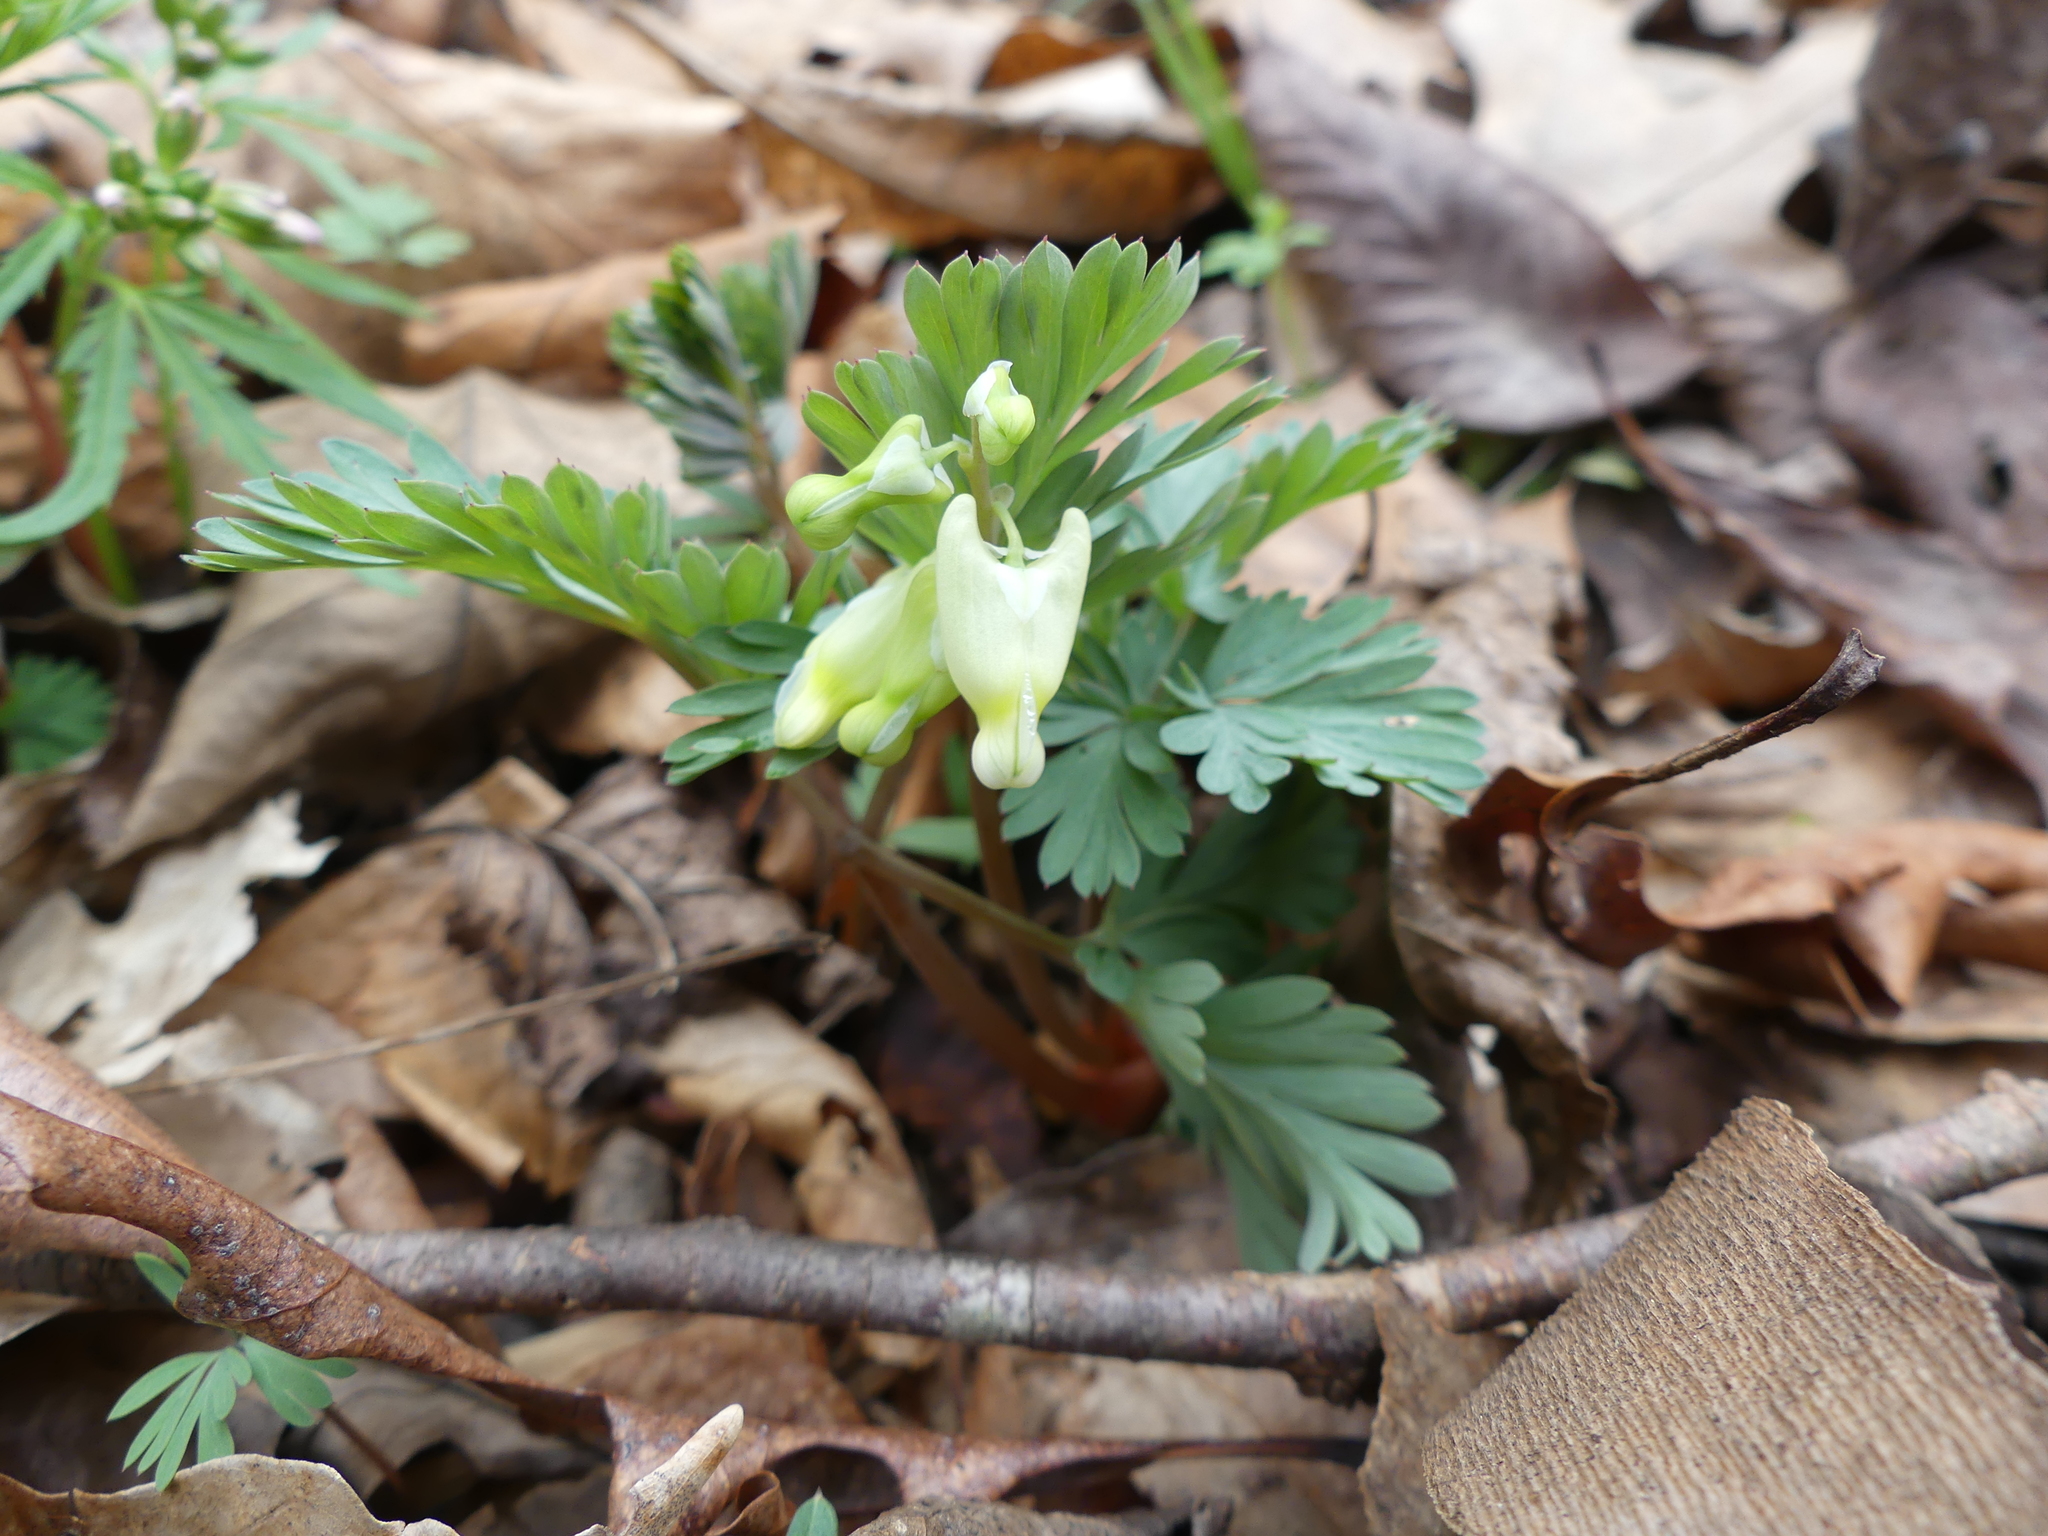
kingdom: Plantae
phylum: Tracheophyta
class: Magnoliopsida
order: Ranunculales
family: Papaveraceae
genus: Dicentra
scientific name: Dicentra cucullaria
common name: Dutchman's breeches
